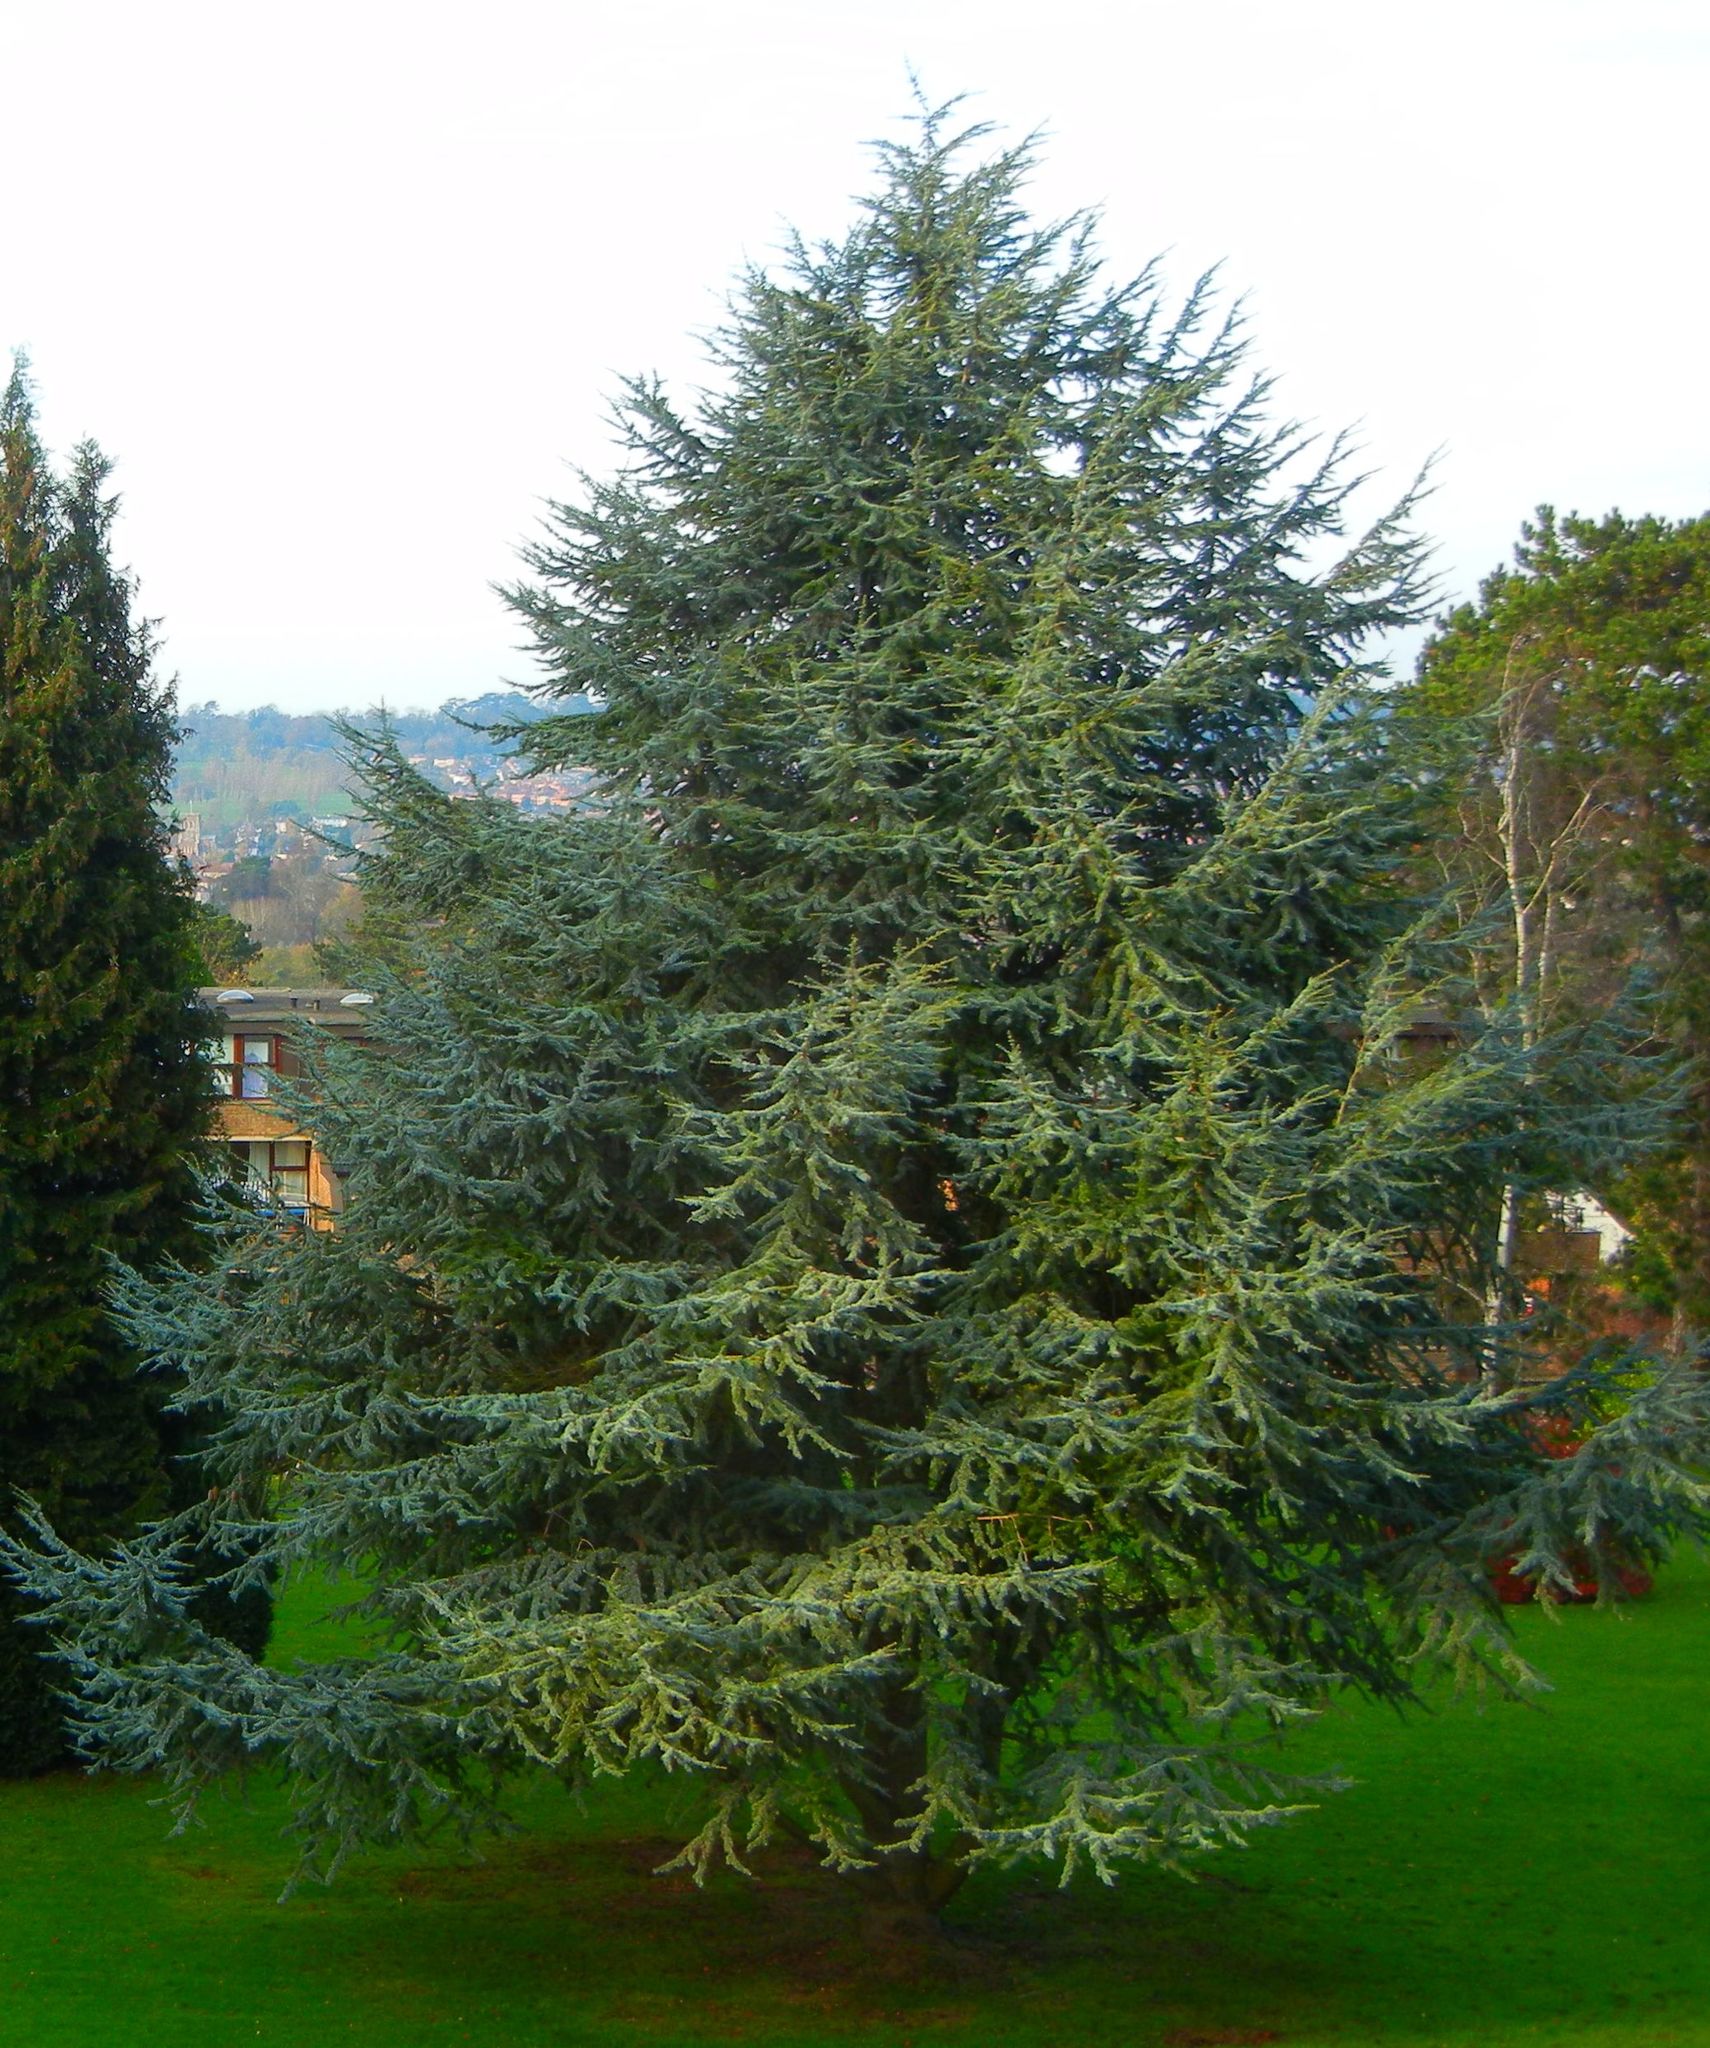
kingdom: Plantae
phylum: Tracheophyta
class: Pinopsida
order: Pinales
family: Pinaceae
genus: Cedrus
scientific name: Cedrus atlantica
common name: Atlas cedar
